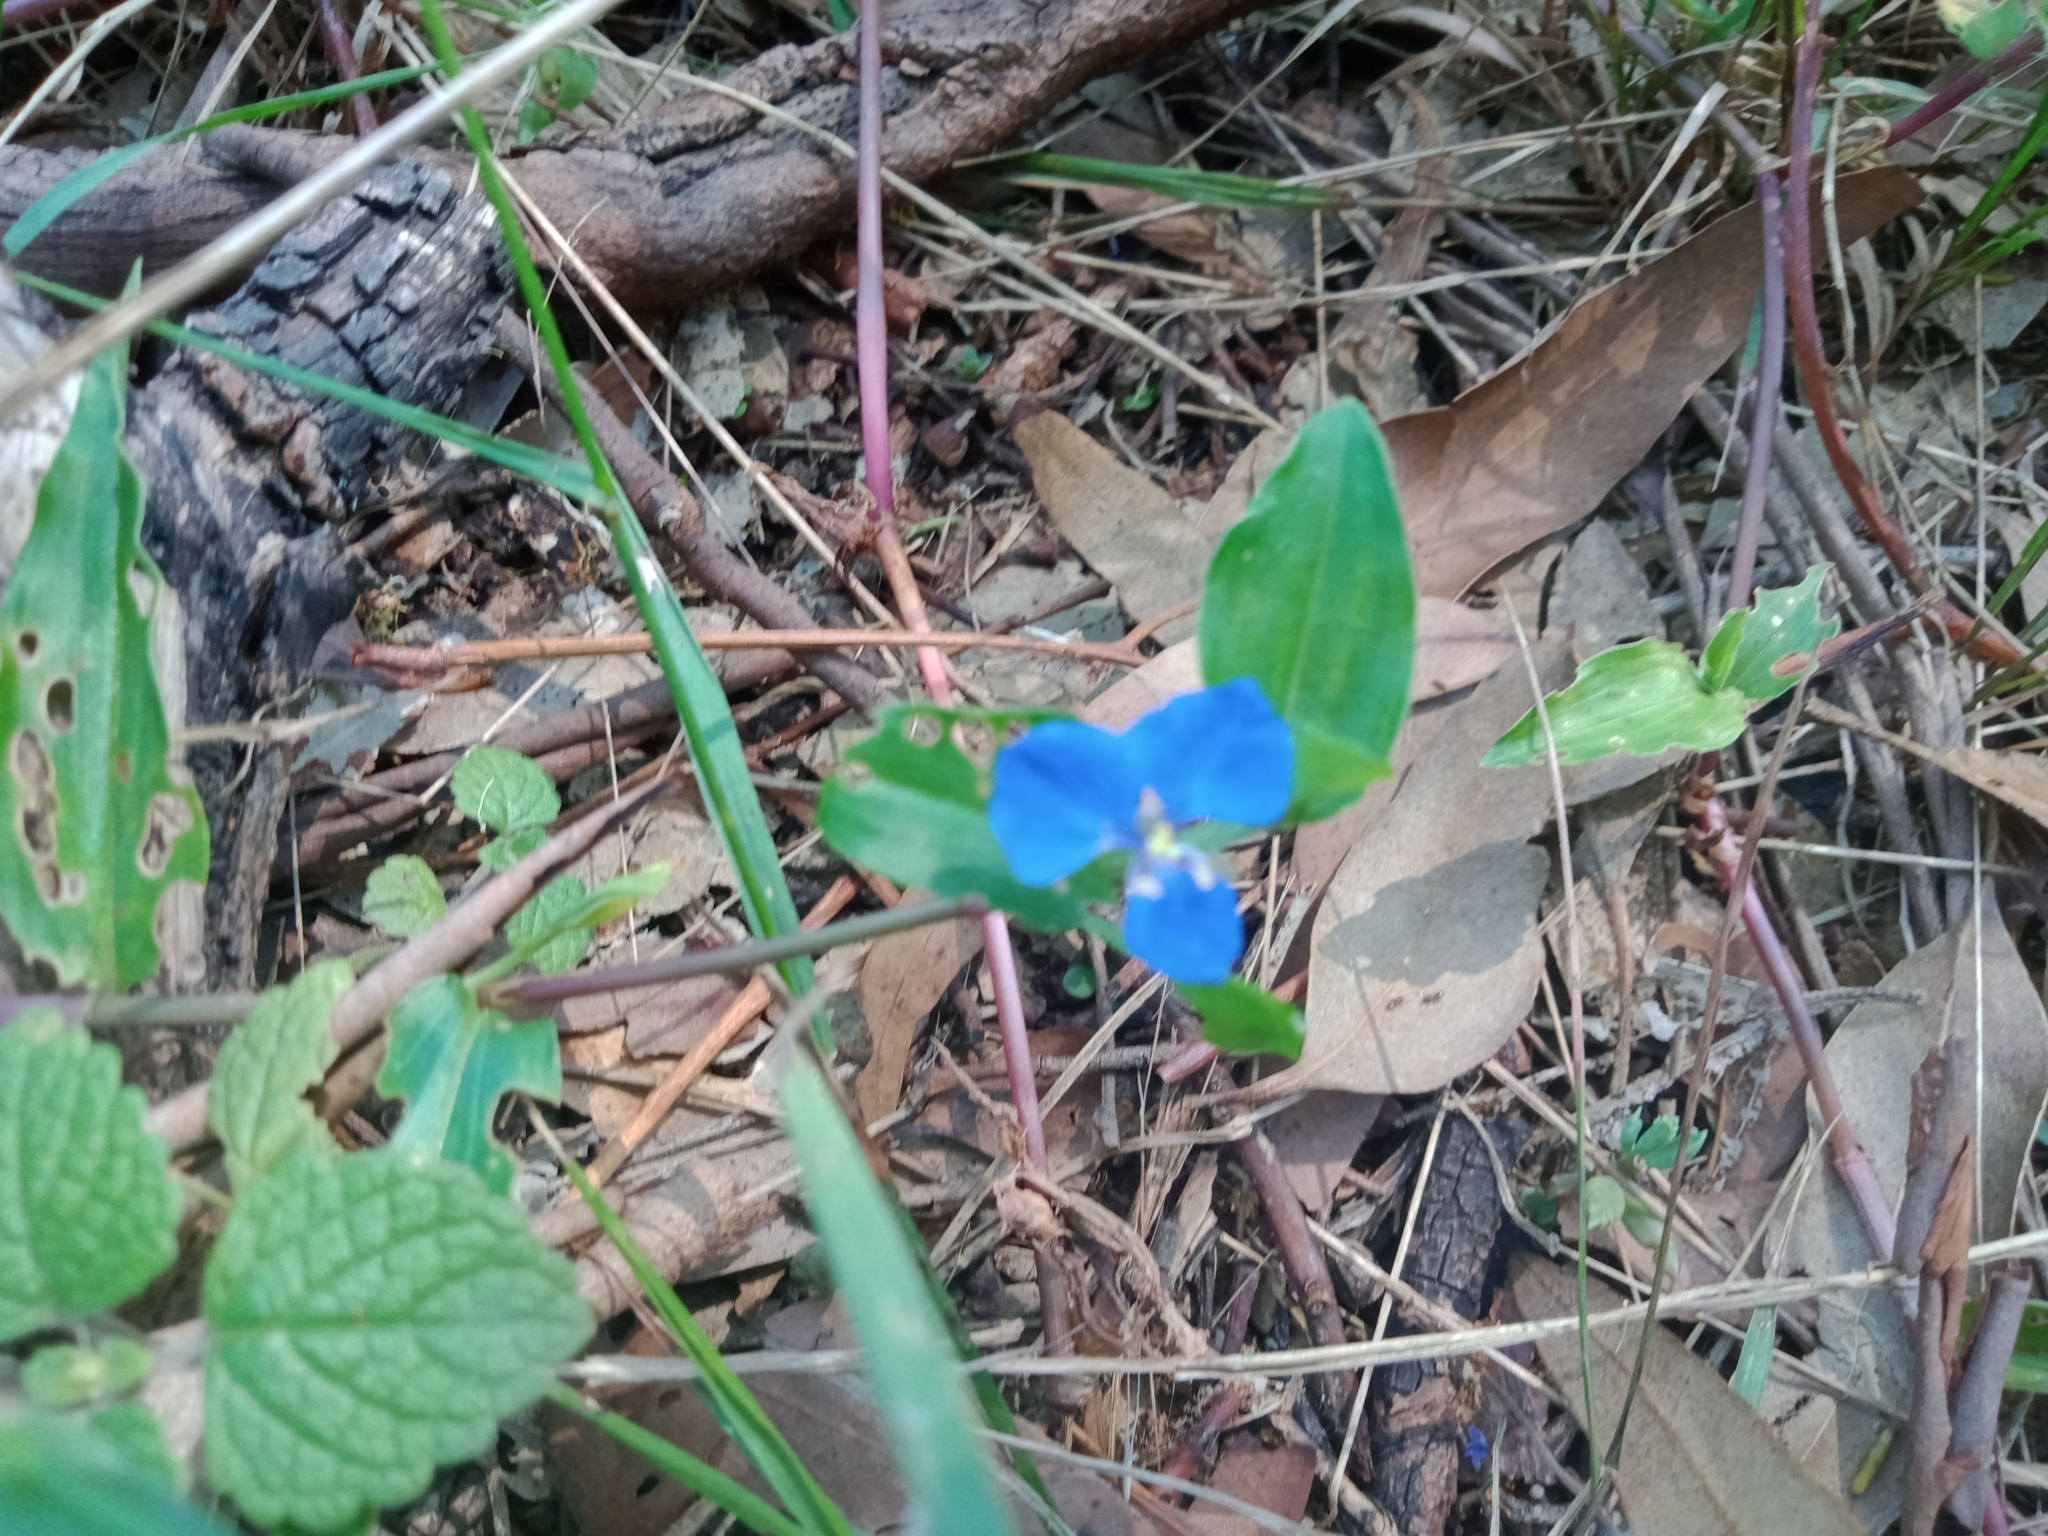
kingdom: Plantae
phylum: Tracheophyta
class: Liliopsida
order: Commelinales
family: Commelinaceae
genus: Commelina
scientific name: Commelina cyanea
